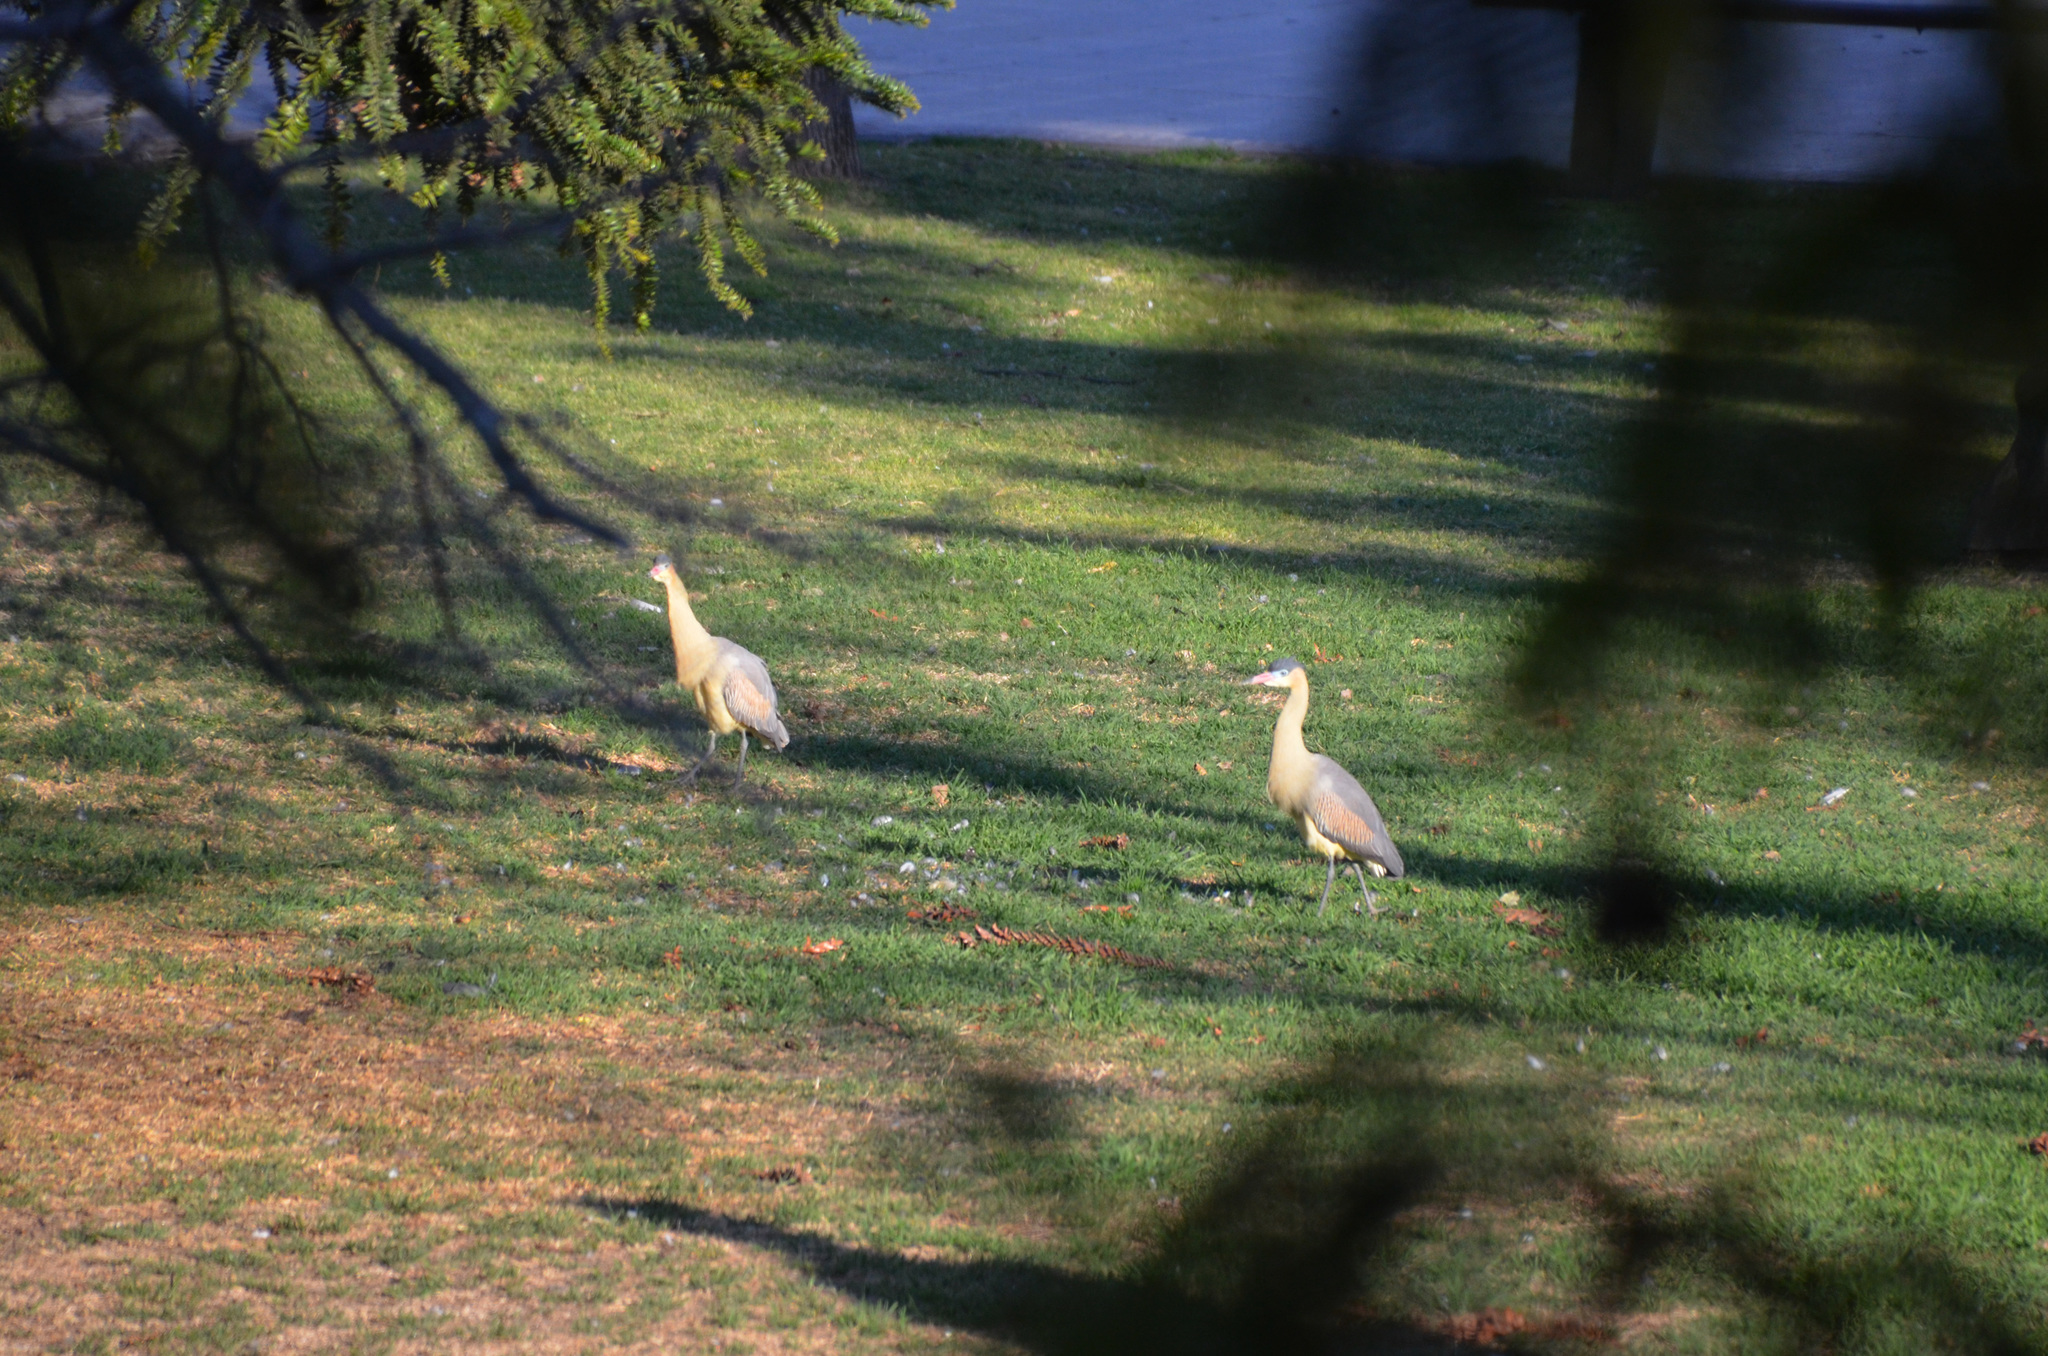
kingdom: Animalia
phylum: Chordata
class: Aves
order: Pelecaniformes
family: Ardeidae
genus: Syrigma
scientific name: Syrigma sibilatrix
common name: Whistling heron
